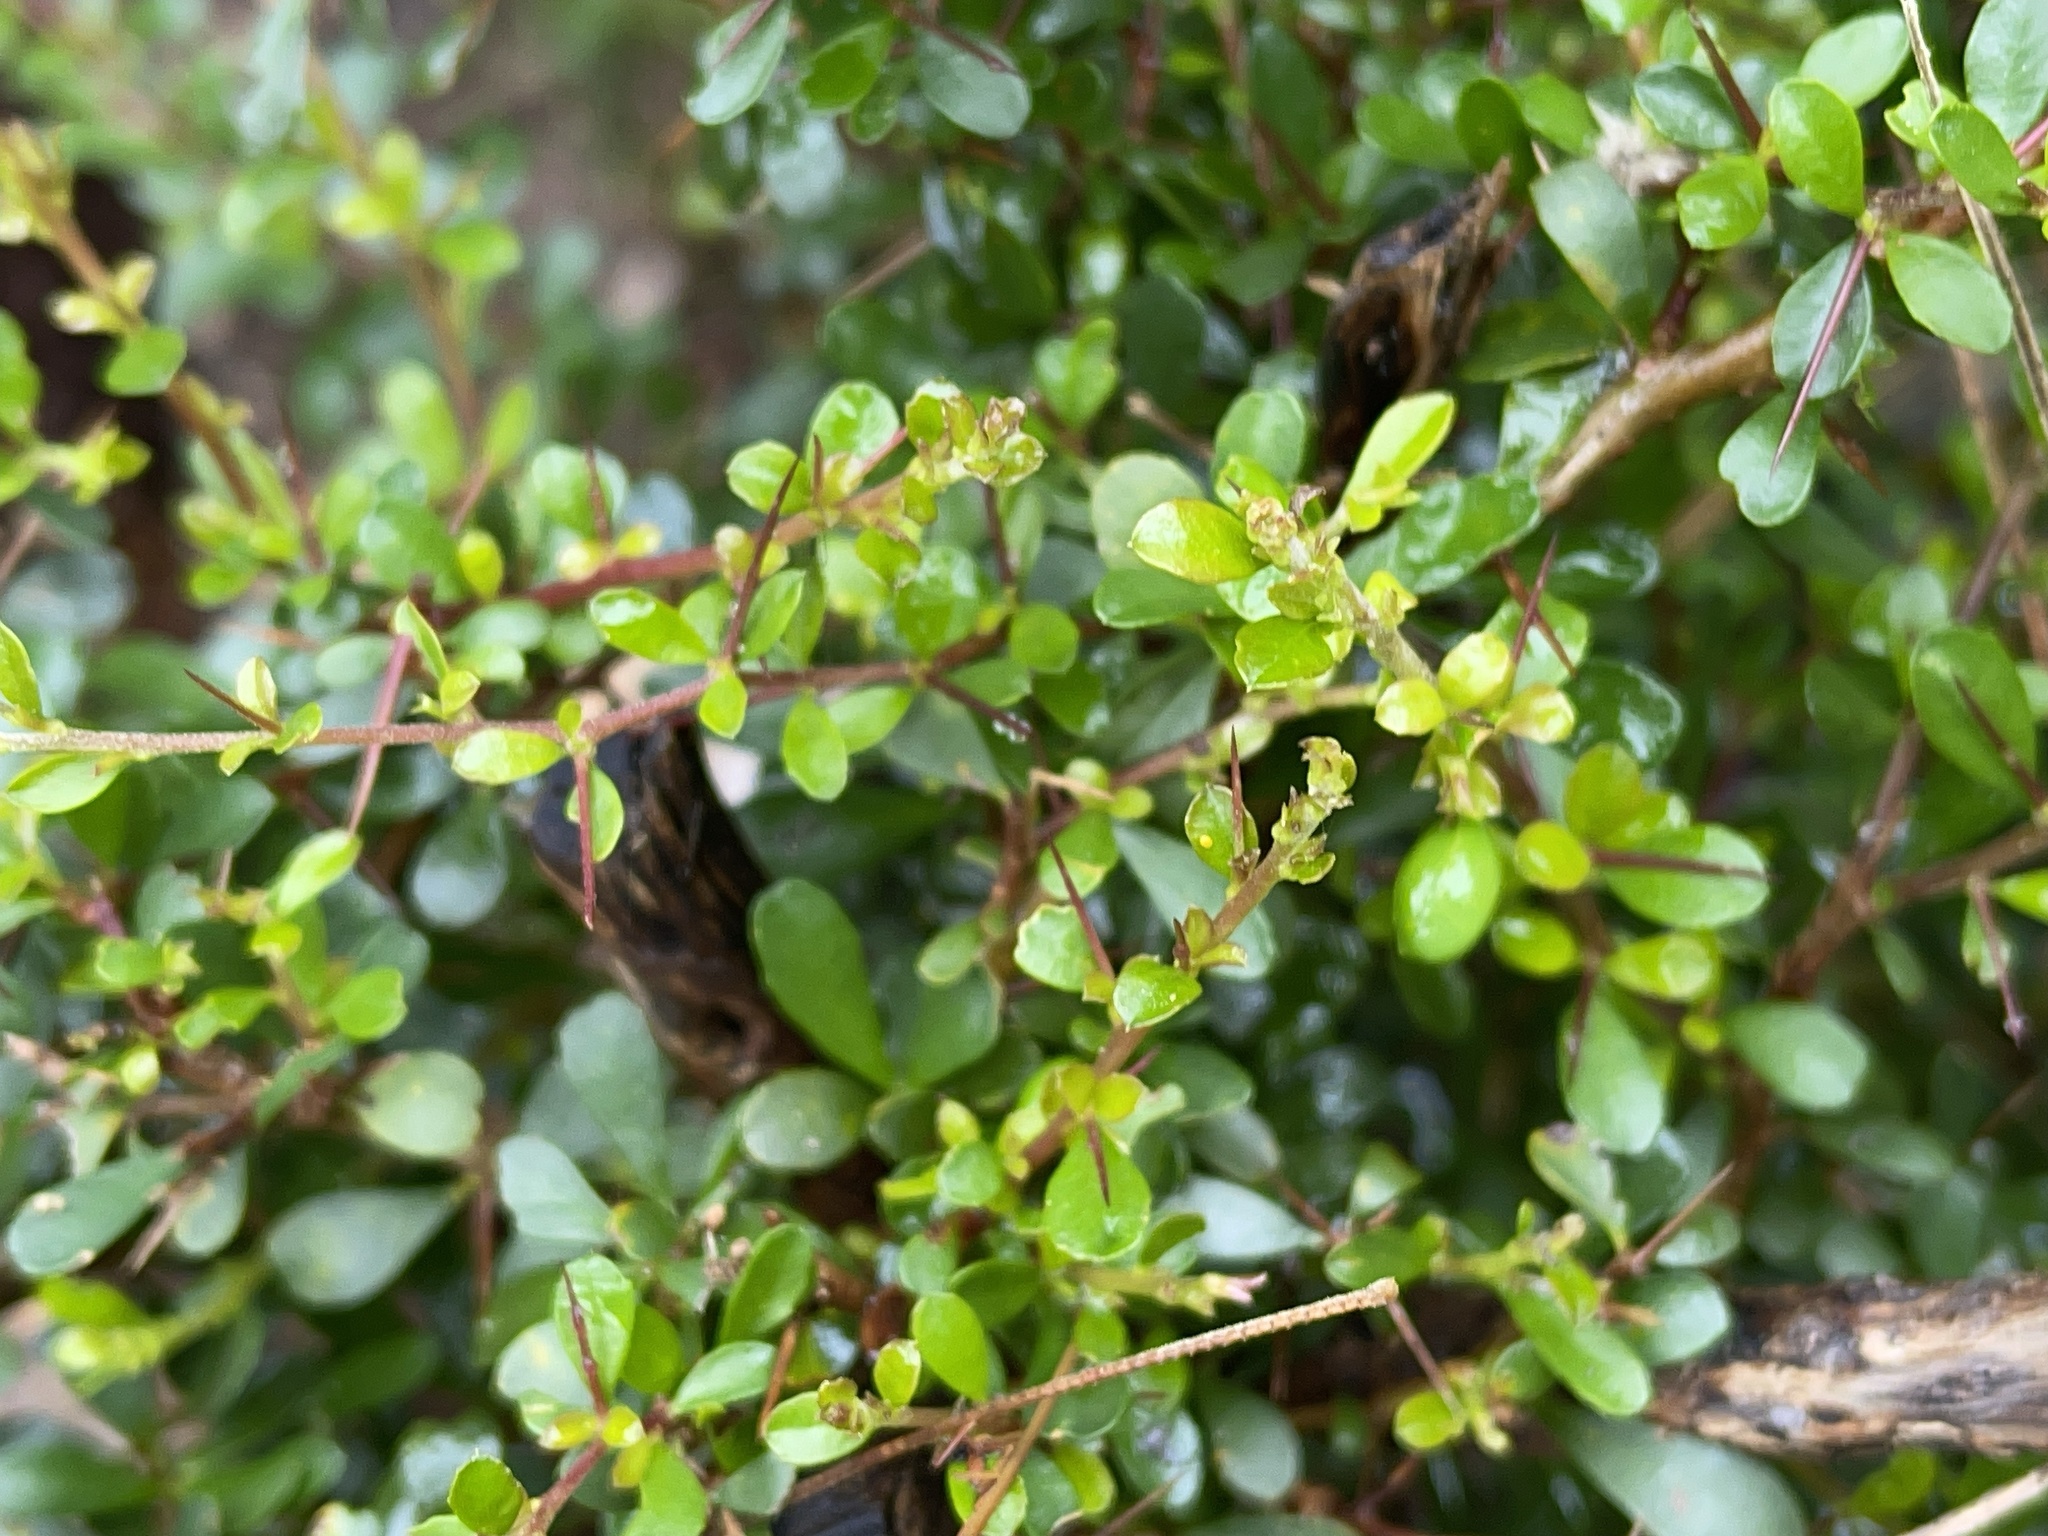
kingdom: Plantae
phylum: Tracheophyta
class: Magnoliopsida
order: Apiales
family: Pittosporaceae
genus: Bursaria
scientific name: Bursaria spinosa
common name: Australian blackthorn
